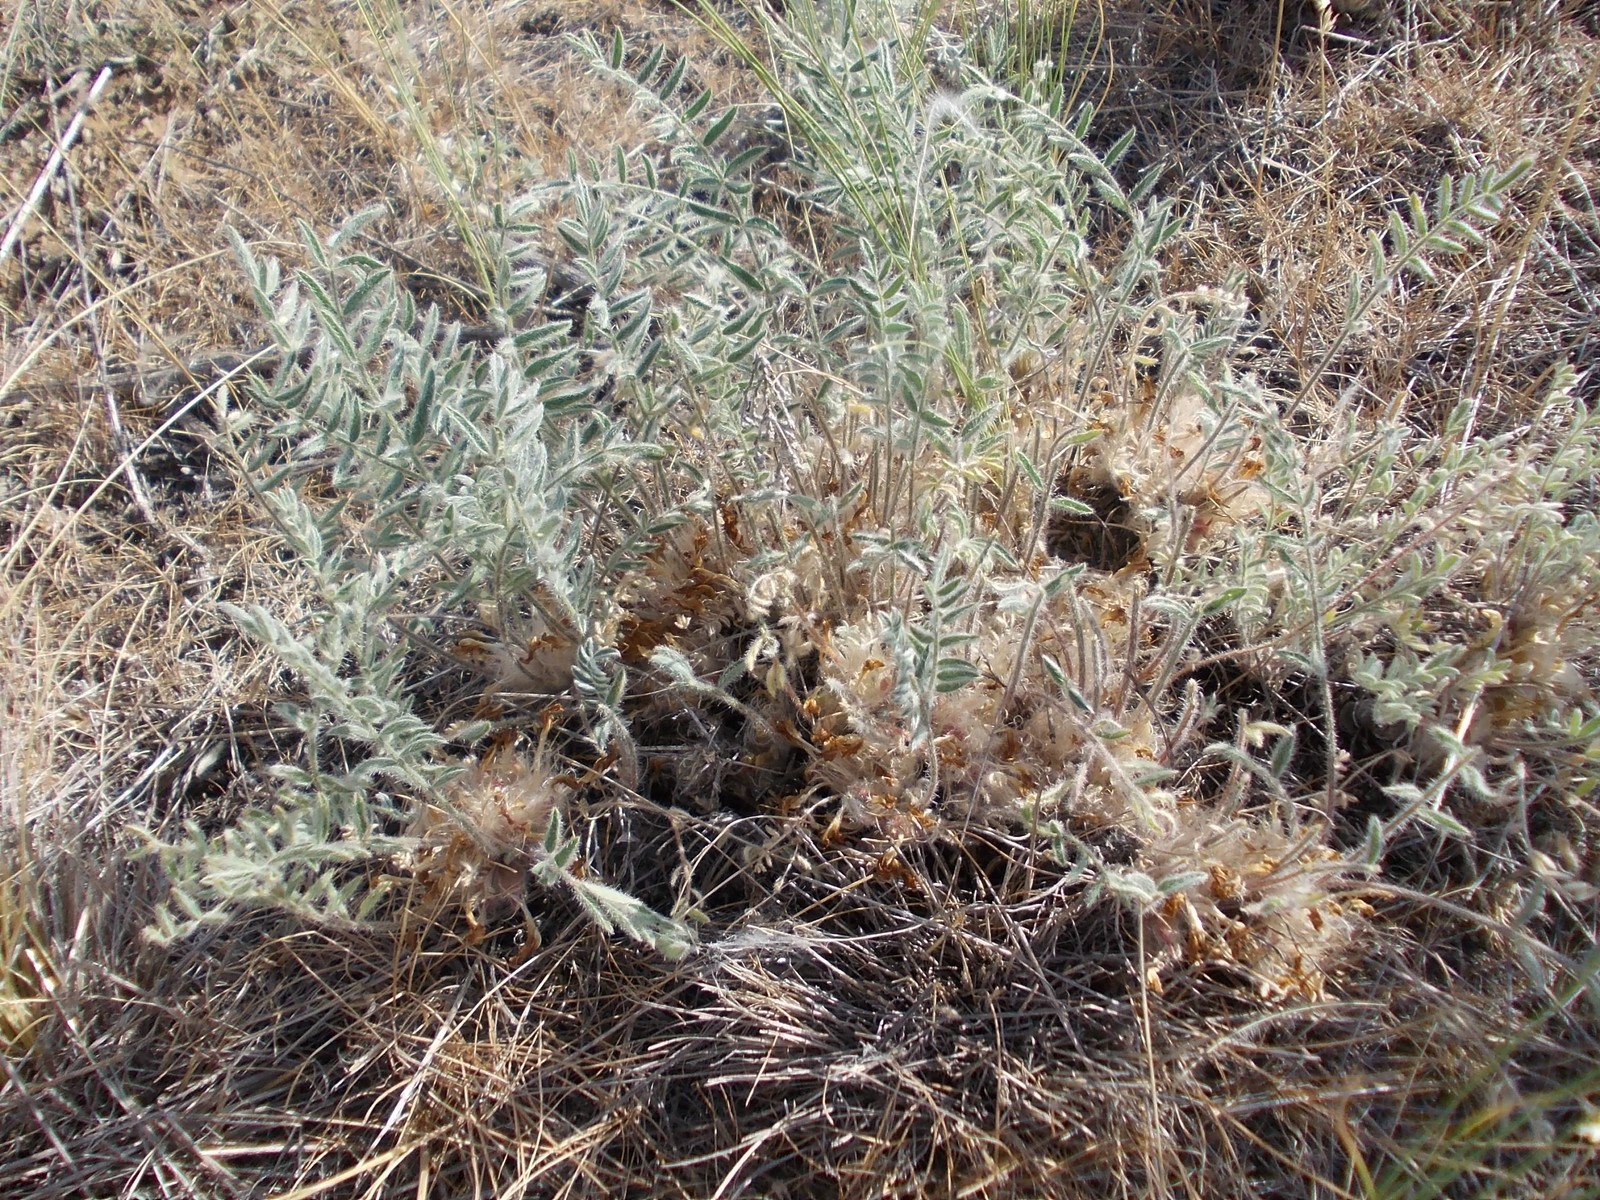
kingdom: Plantae
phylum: Tracheophyta
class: Magnoliopsida
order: Fabales
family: Fabaceae
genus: Astragalus
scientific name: Astragalus testiculatus
